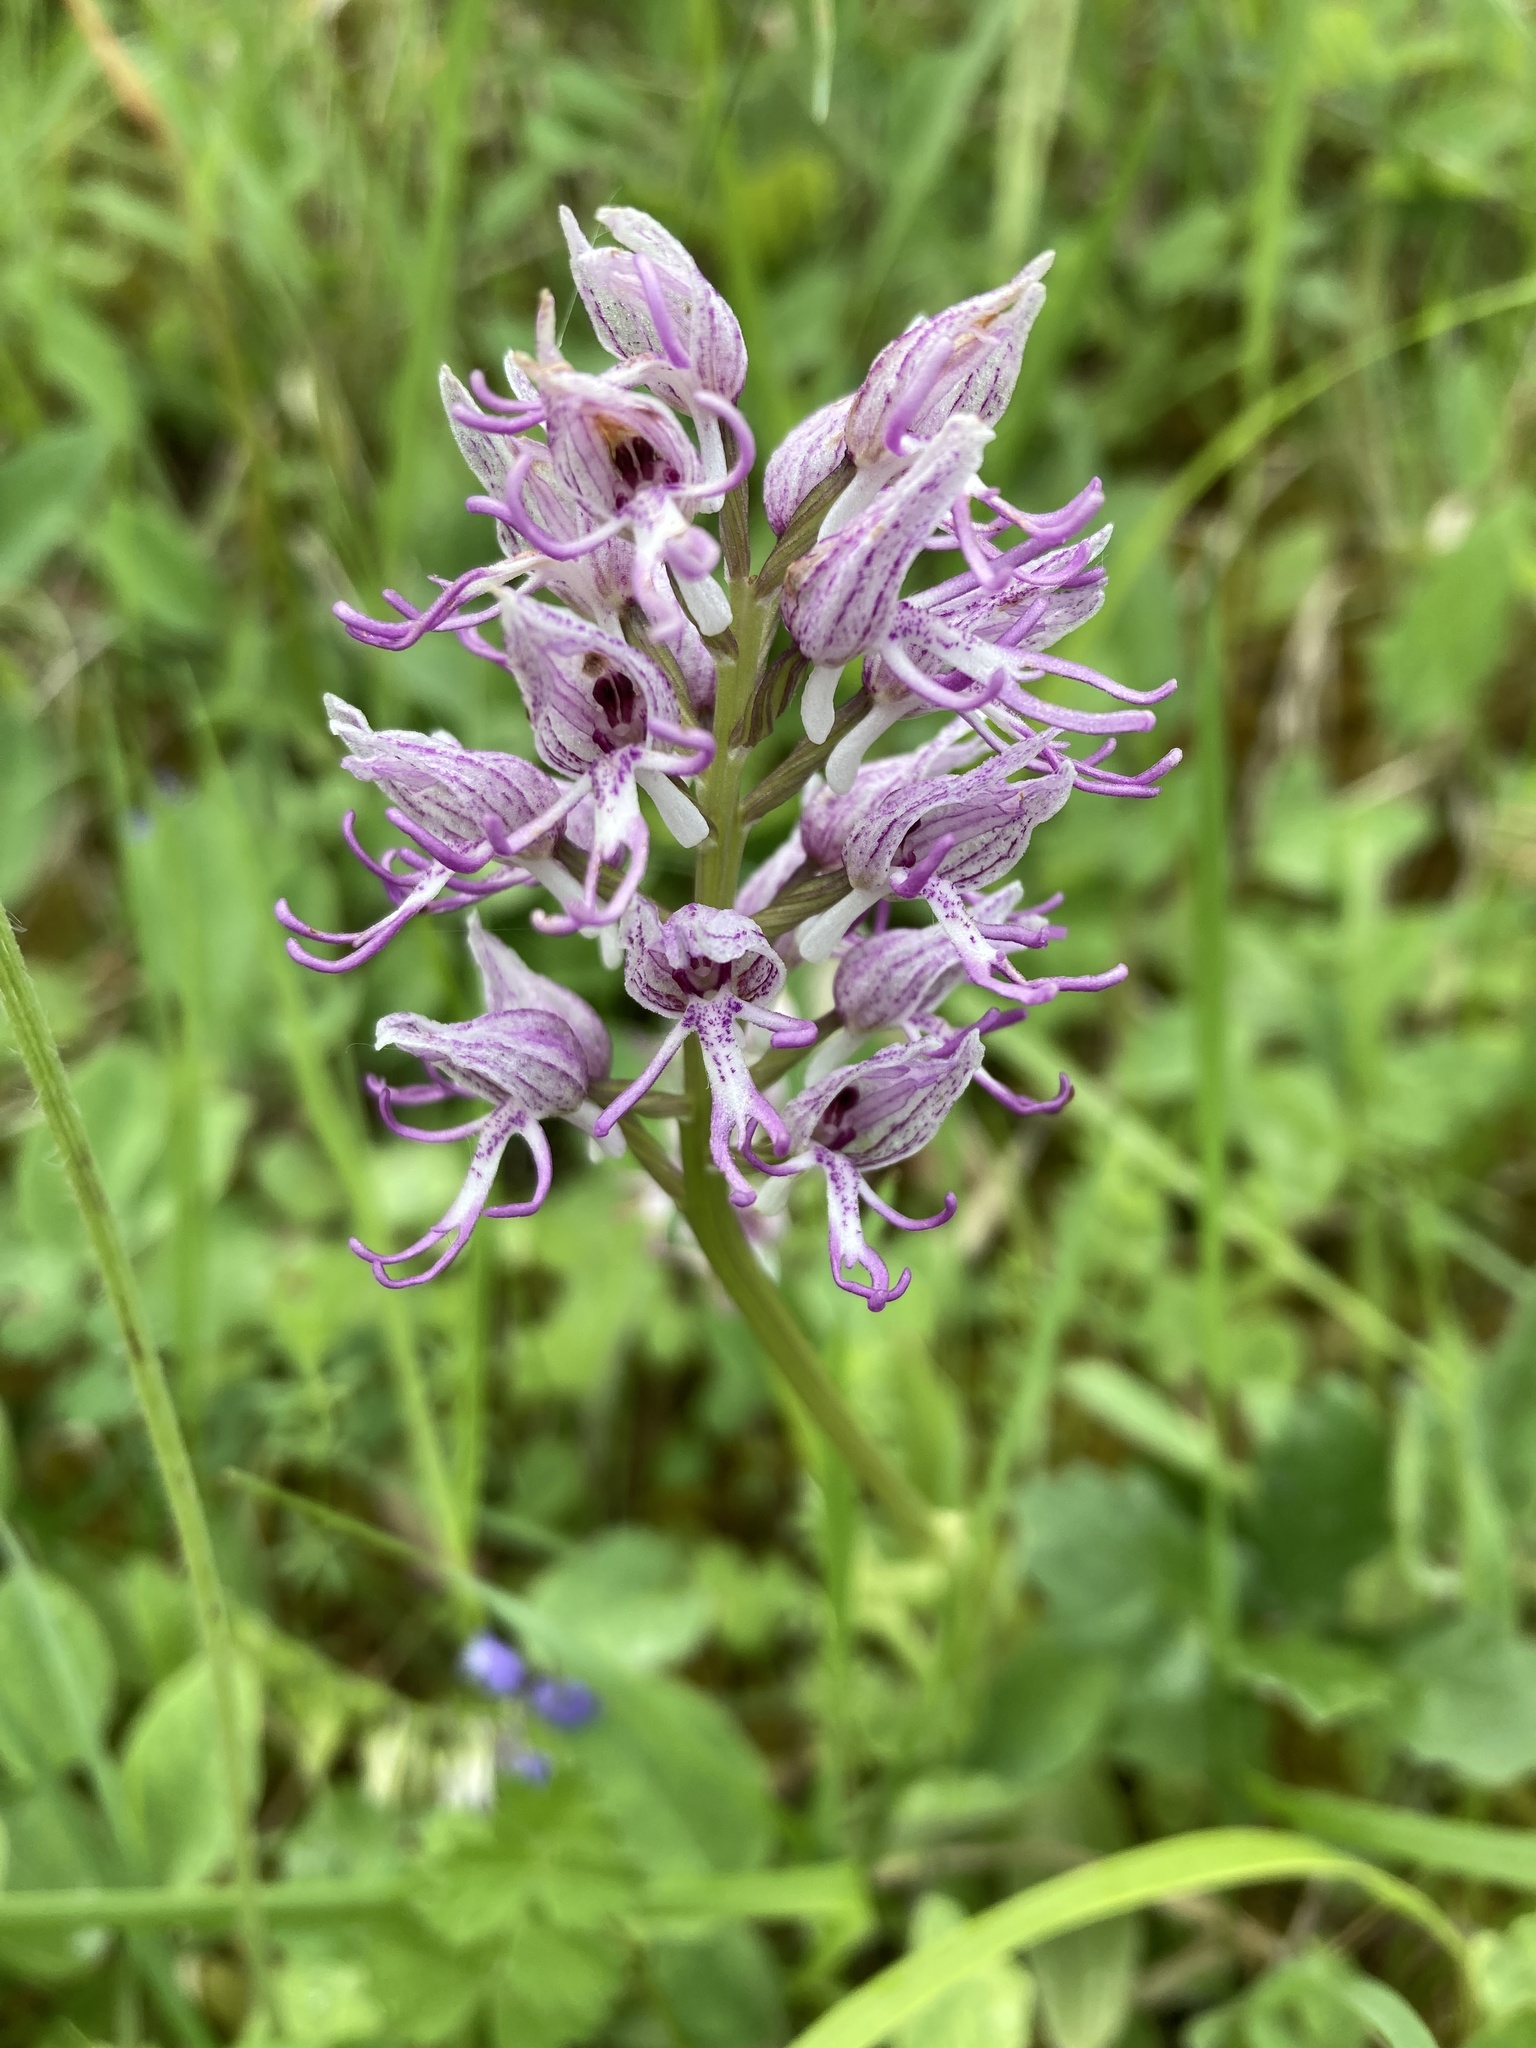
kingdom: Plantae
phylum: Tracheophyta
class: Liliopsida
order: Asparagales
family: Orchidaceae
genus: Orchis
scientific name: Orchis simia
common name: Monkey orchid
